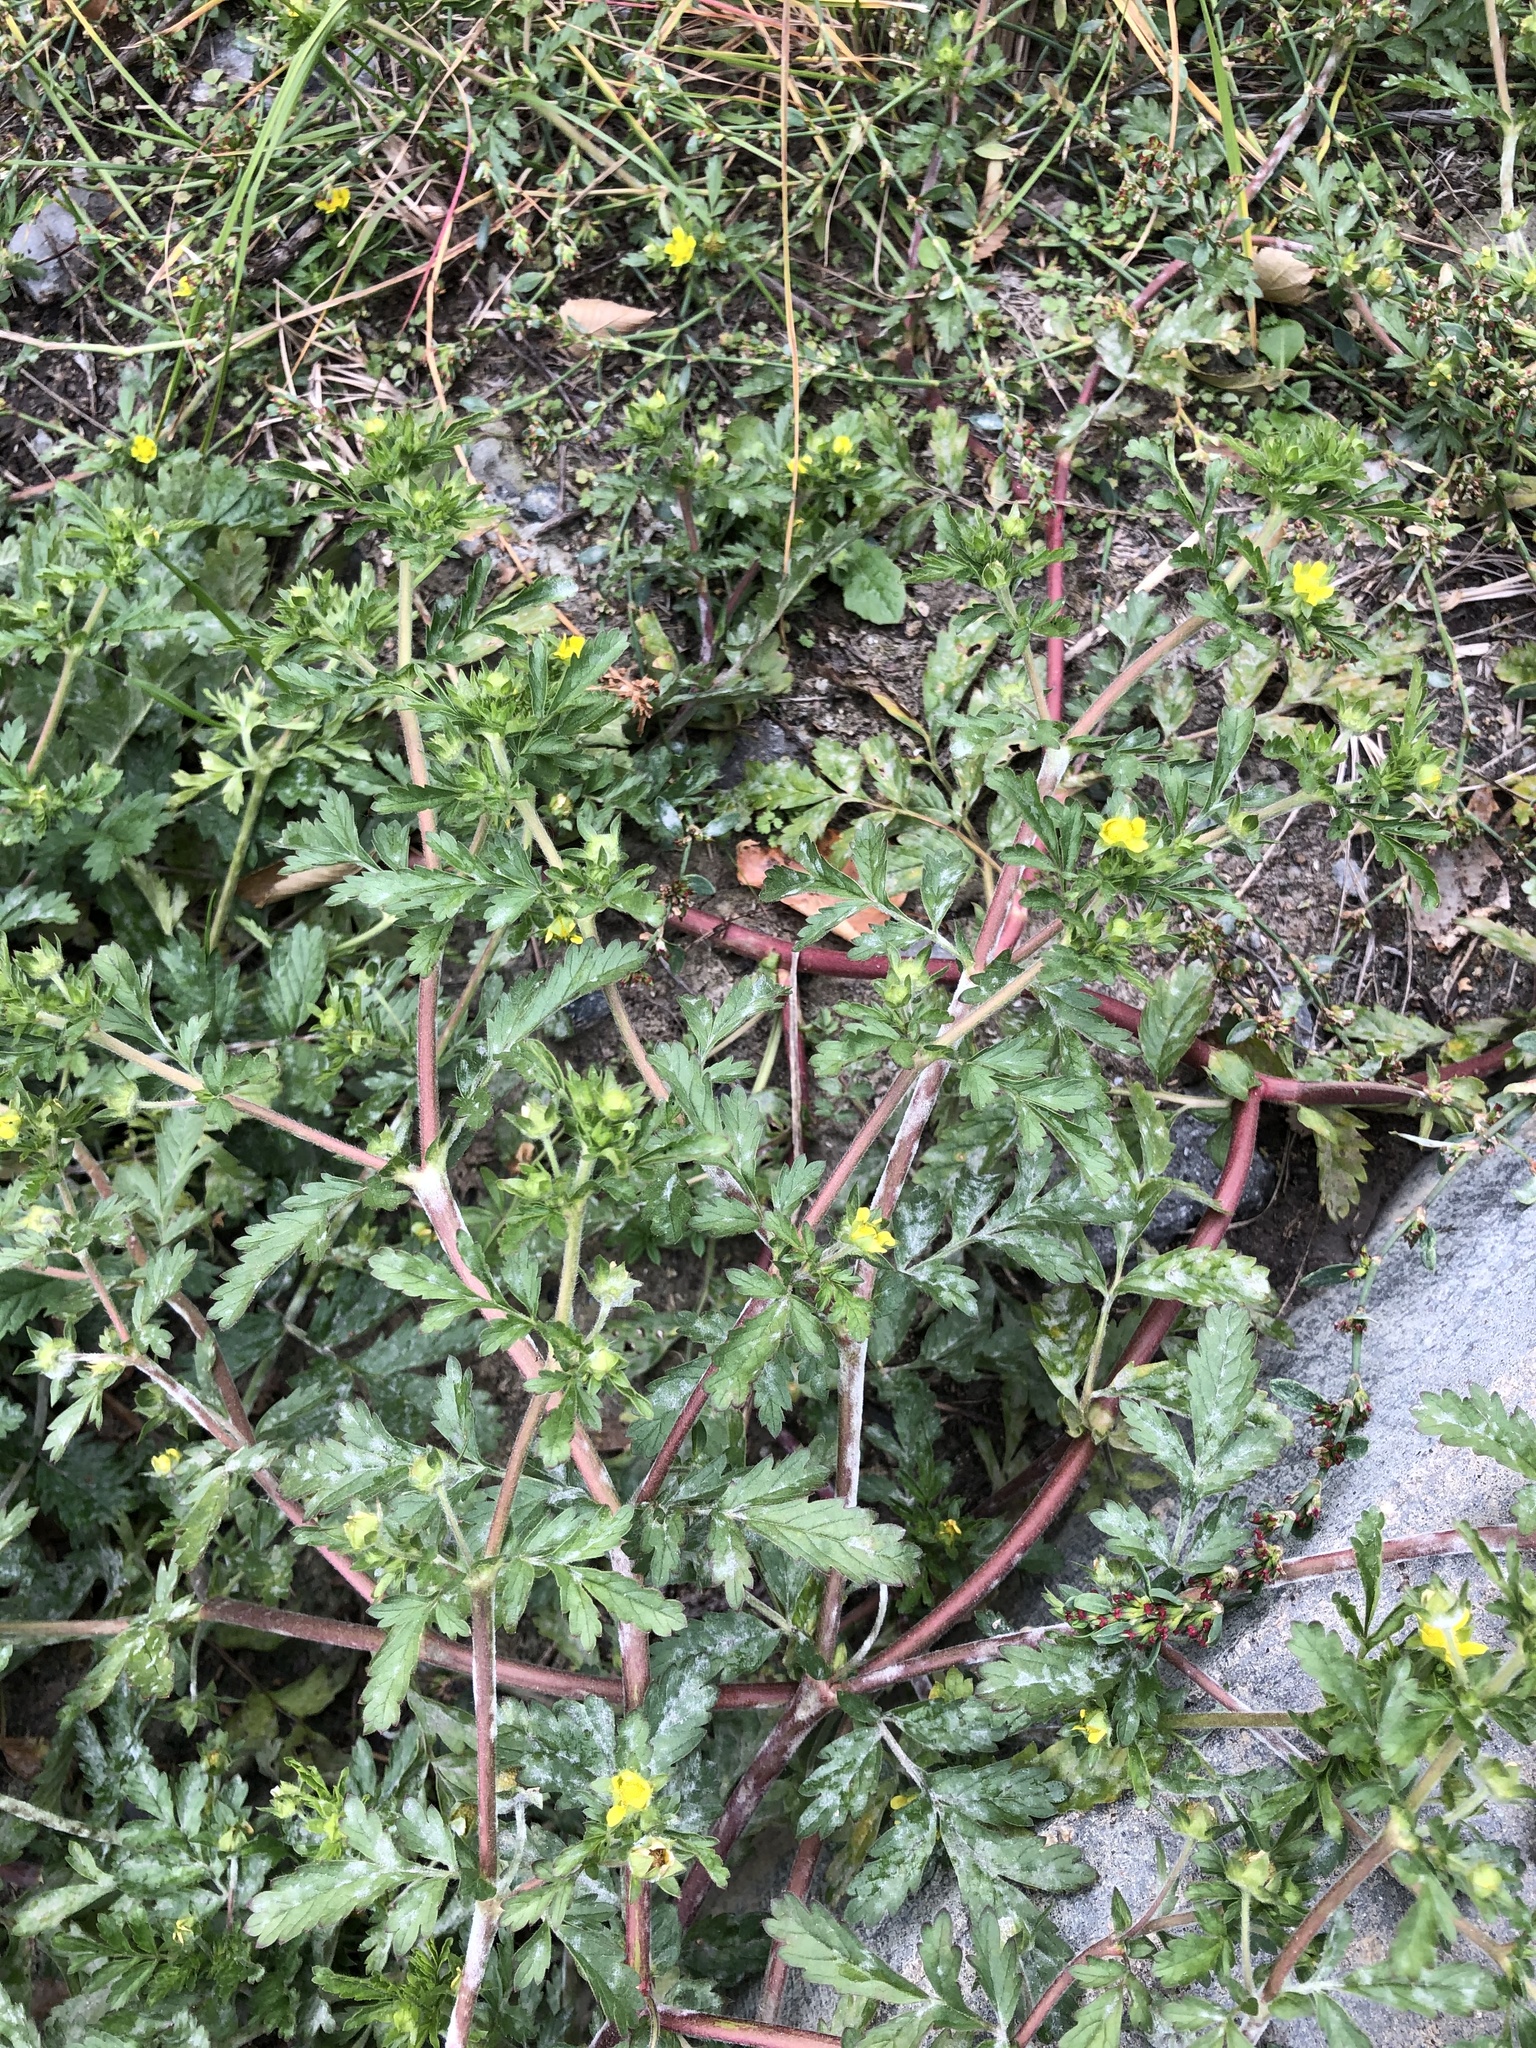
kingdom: Plantae
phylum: Tracheophyta
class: Magnoliopsida
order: Rosales
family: Rosaceae
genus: Potentilla
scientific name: Potentilla supina
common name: Prostrate cinquefoil
